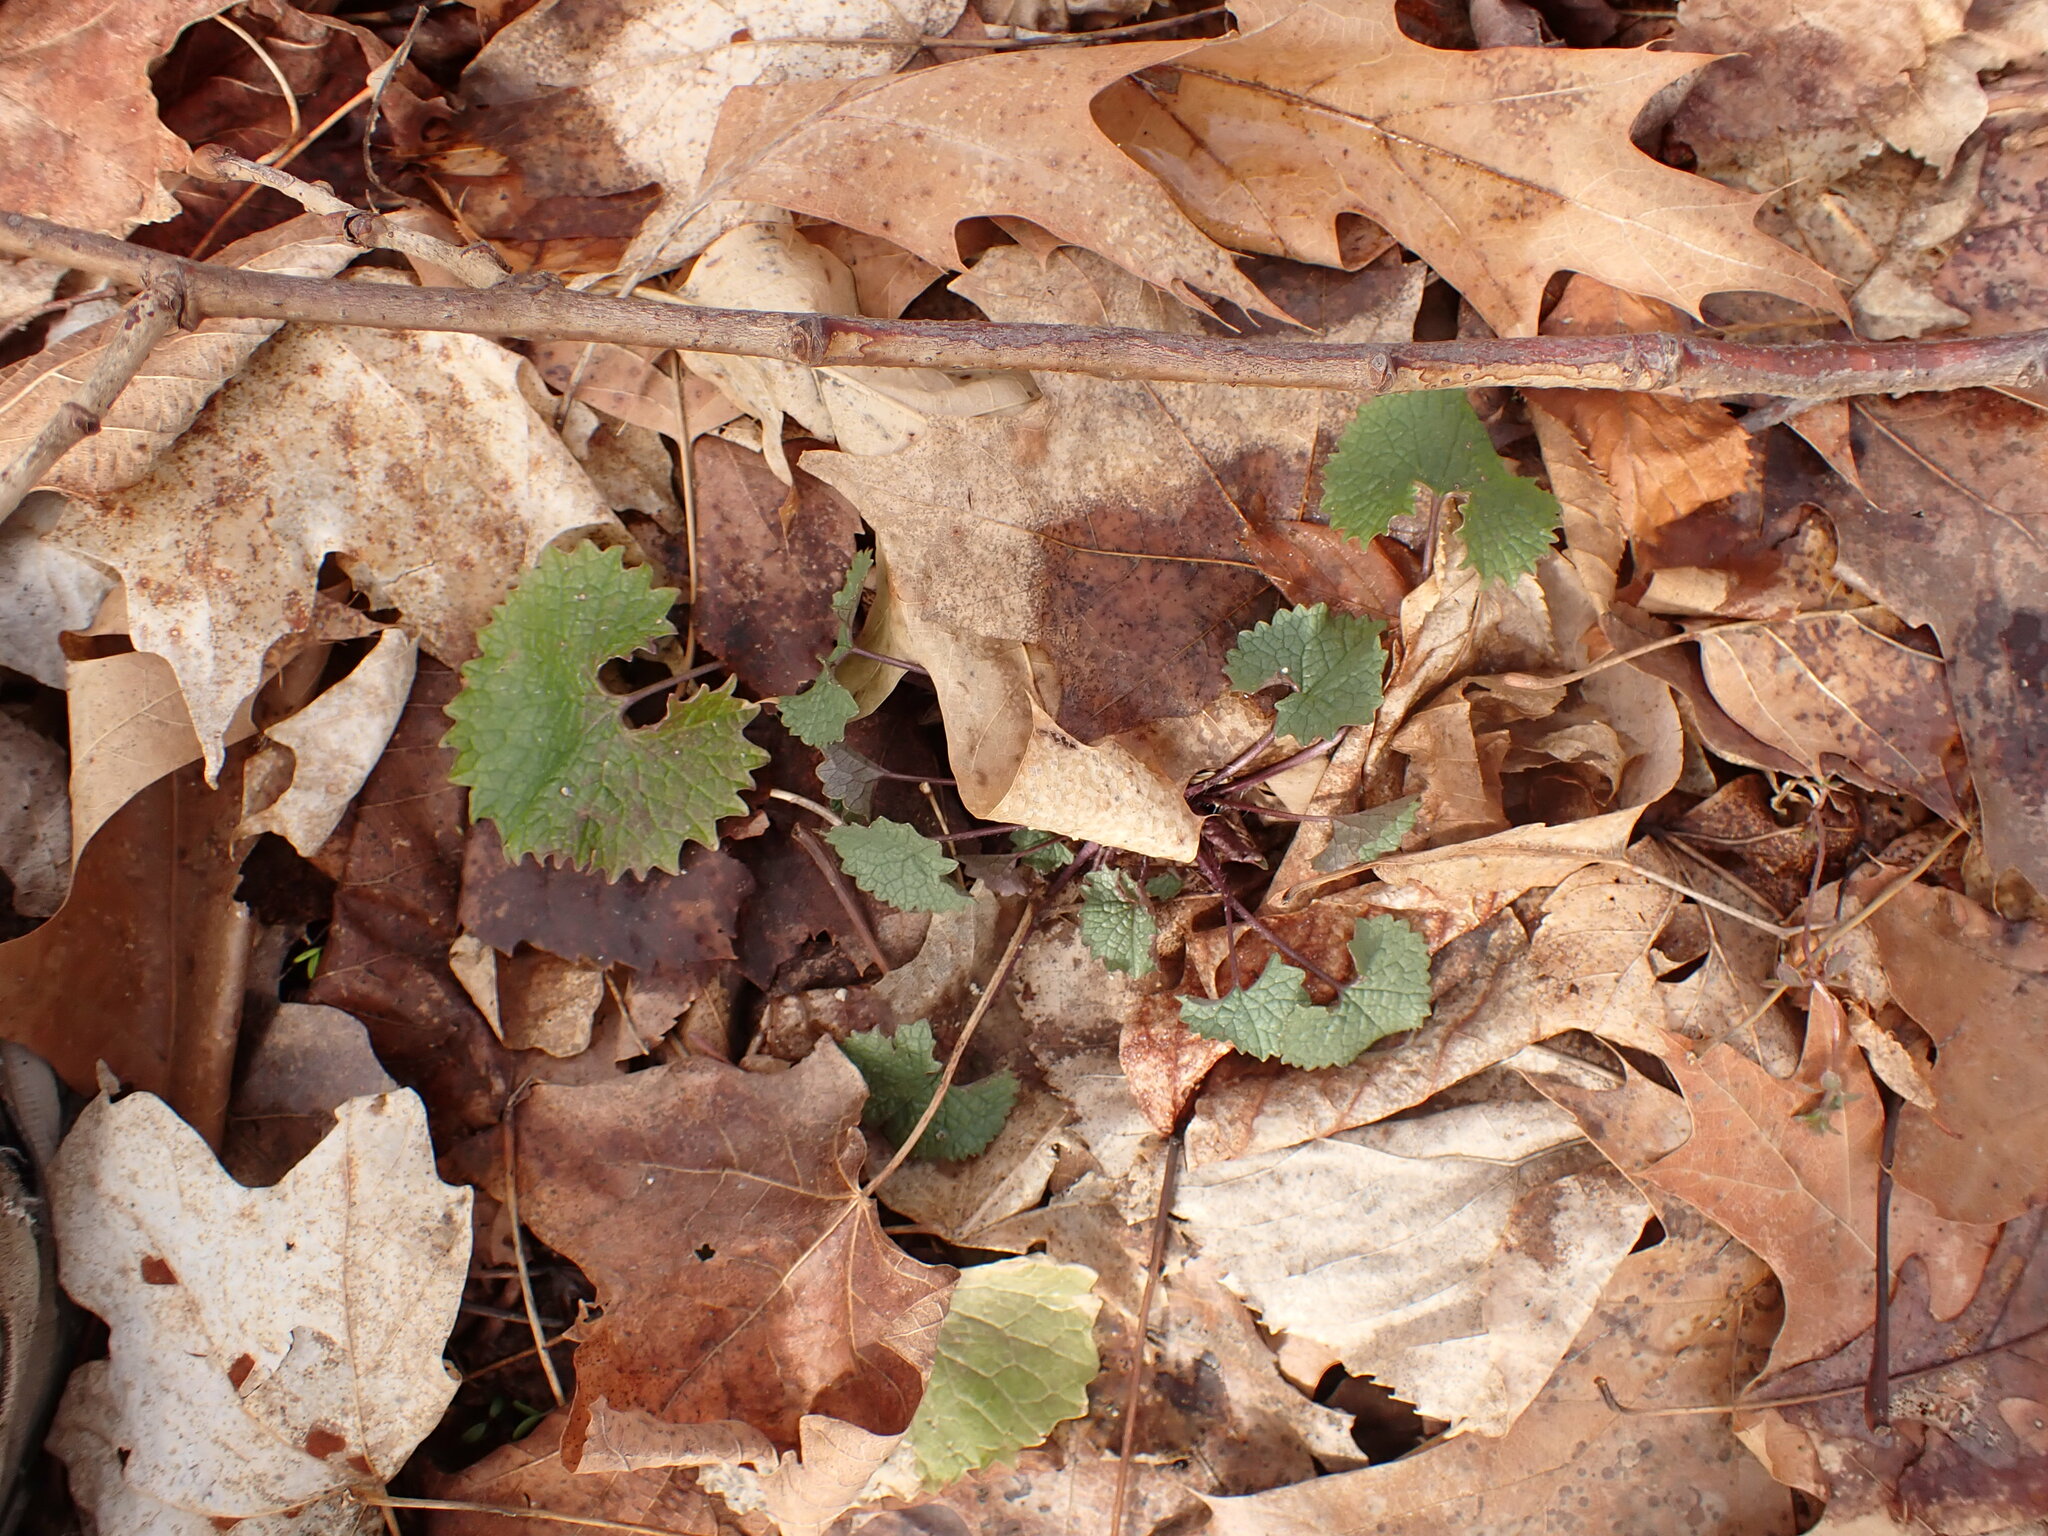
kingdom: Plantae
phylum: Tracheophyta
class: Magnoliopsida
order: Brassicales
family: Brassicaceae
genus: Alliaria
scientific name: Alliaria petiolata
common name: Garlic mustard
